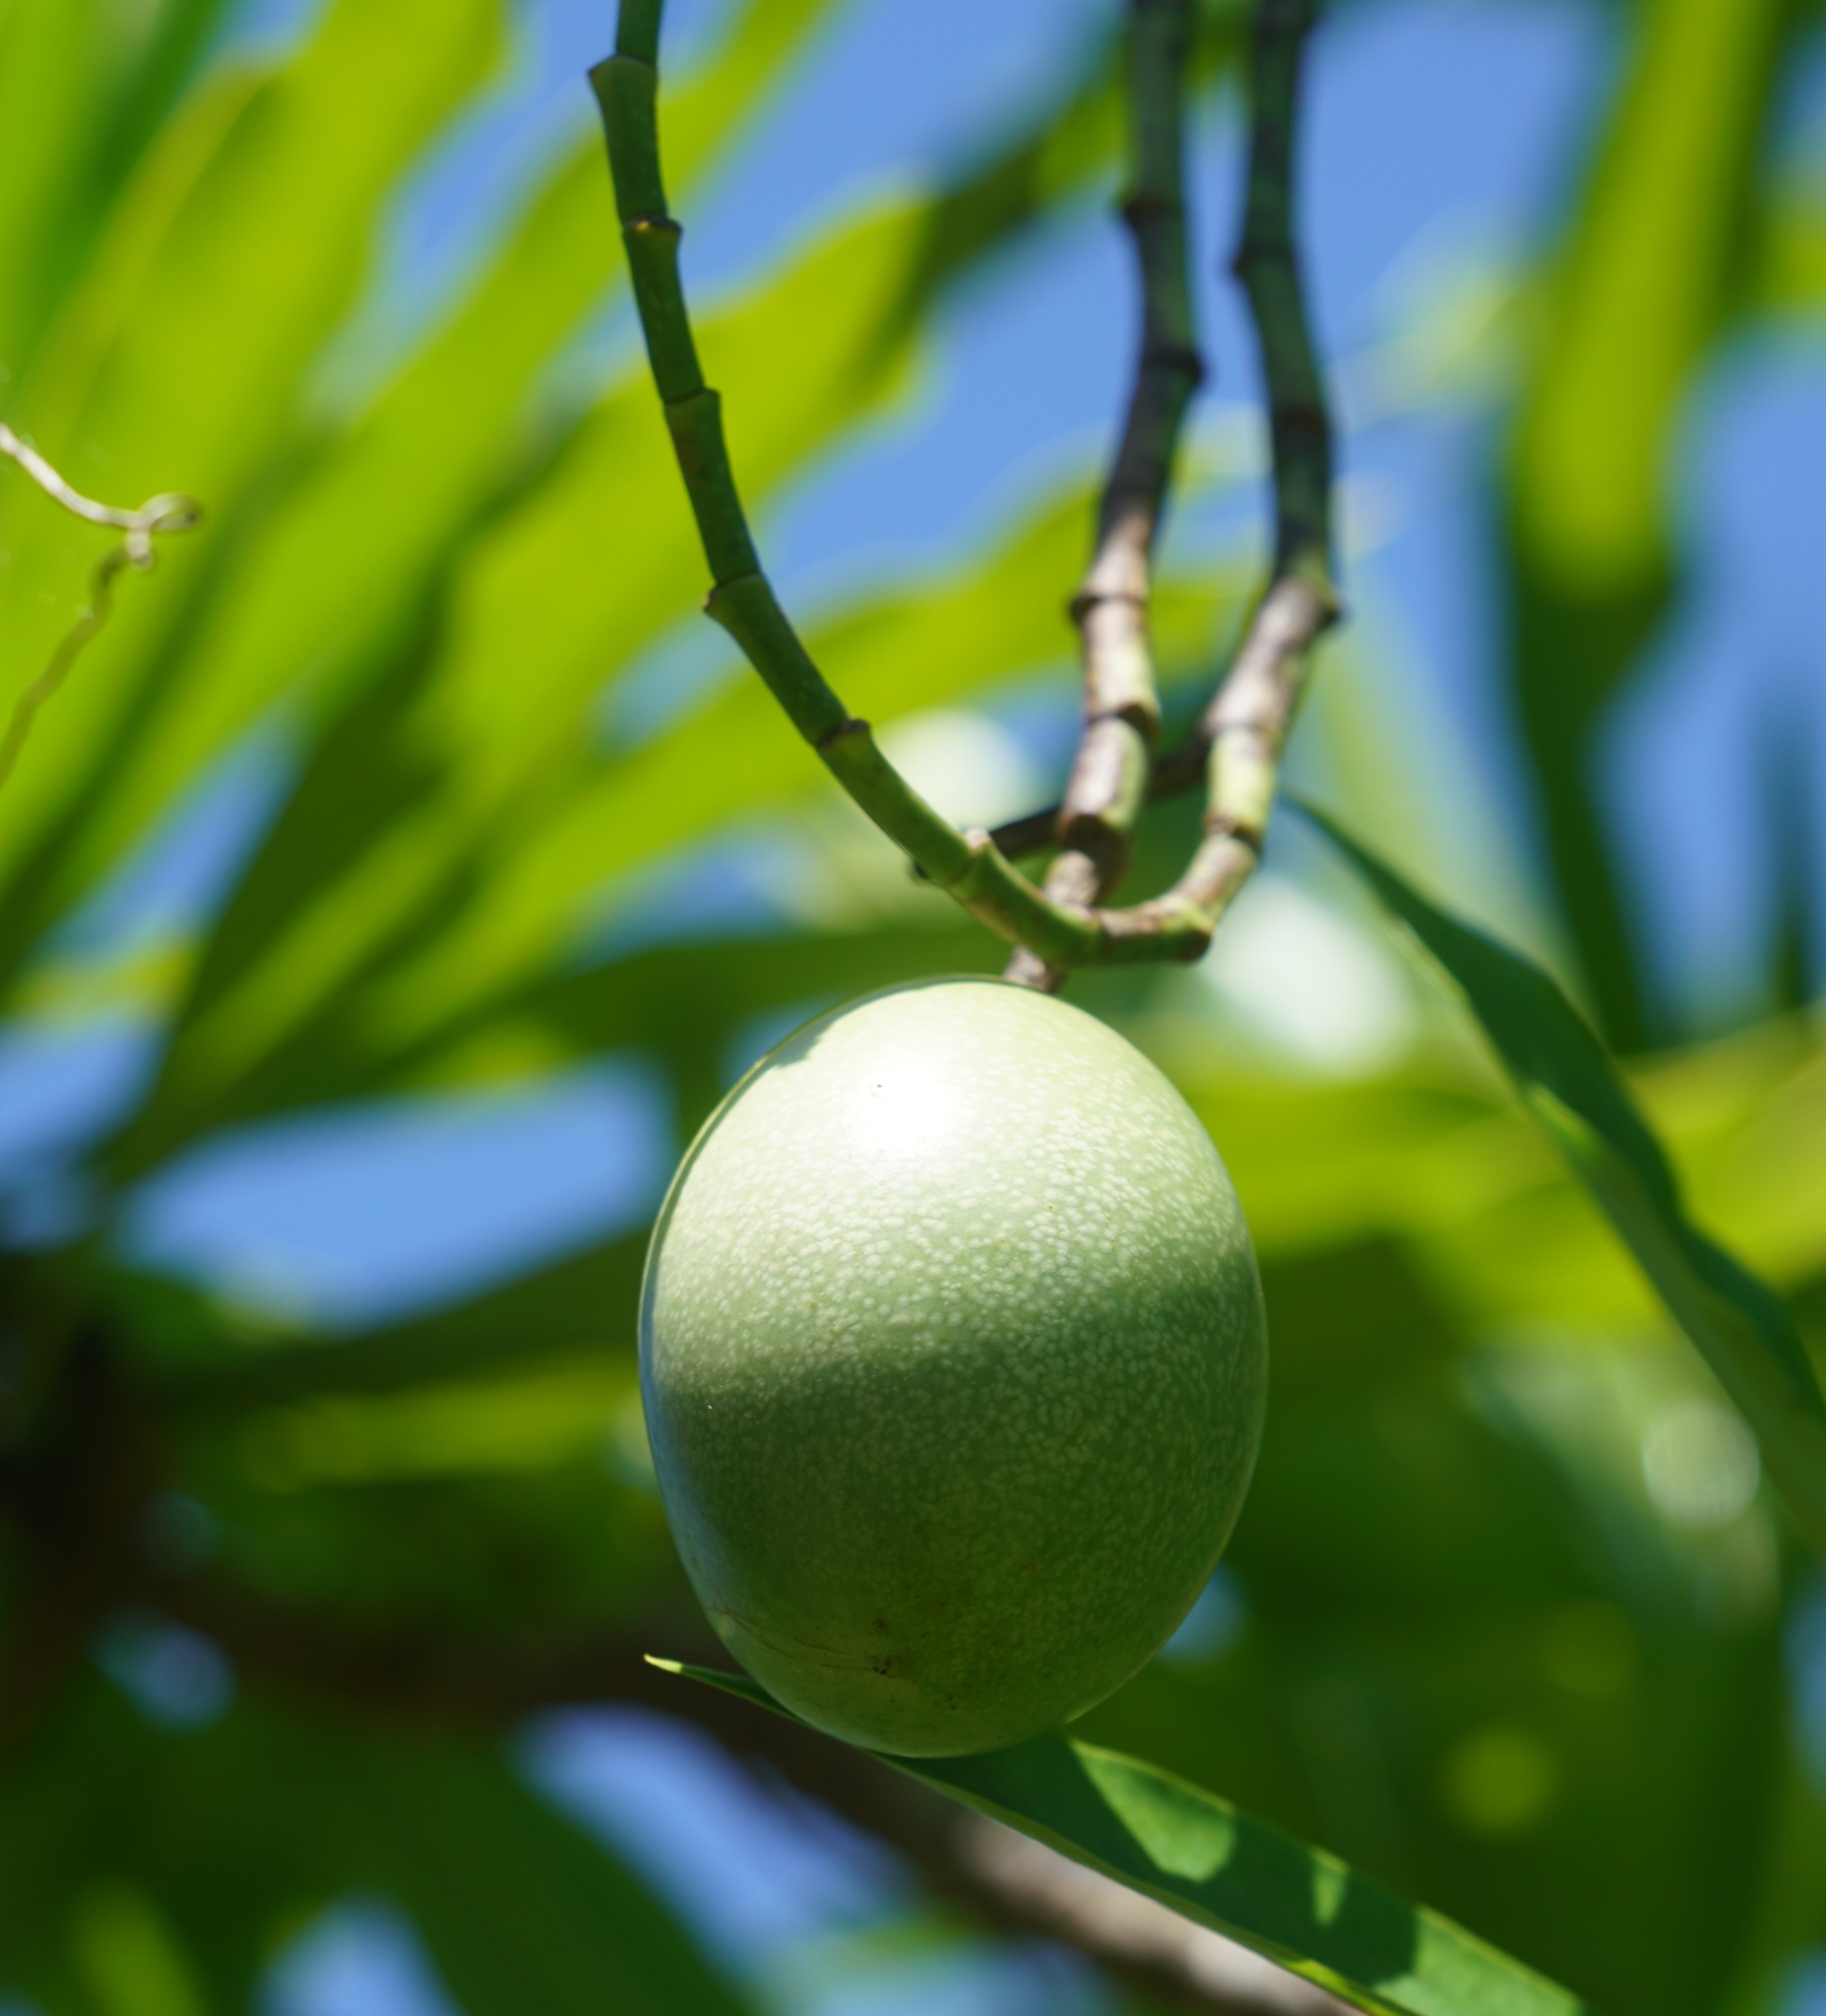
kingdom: Plantae
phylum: Tracheophyta
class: Magnoliopsida
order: Gentianales
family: Apocynaceae
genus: Cerbera
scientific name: Cerbera manghas
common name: Reva
